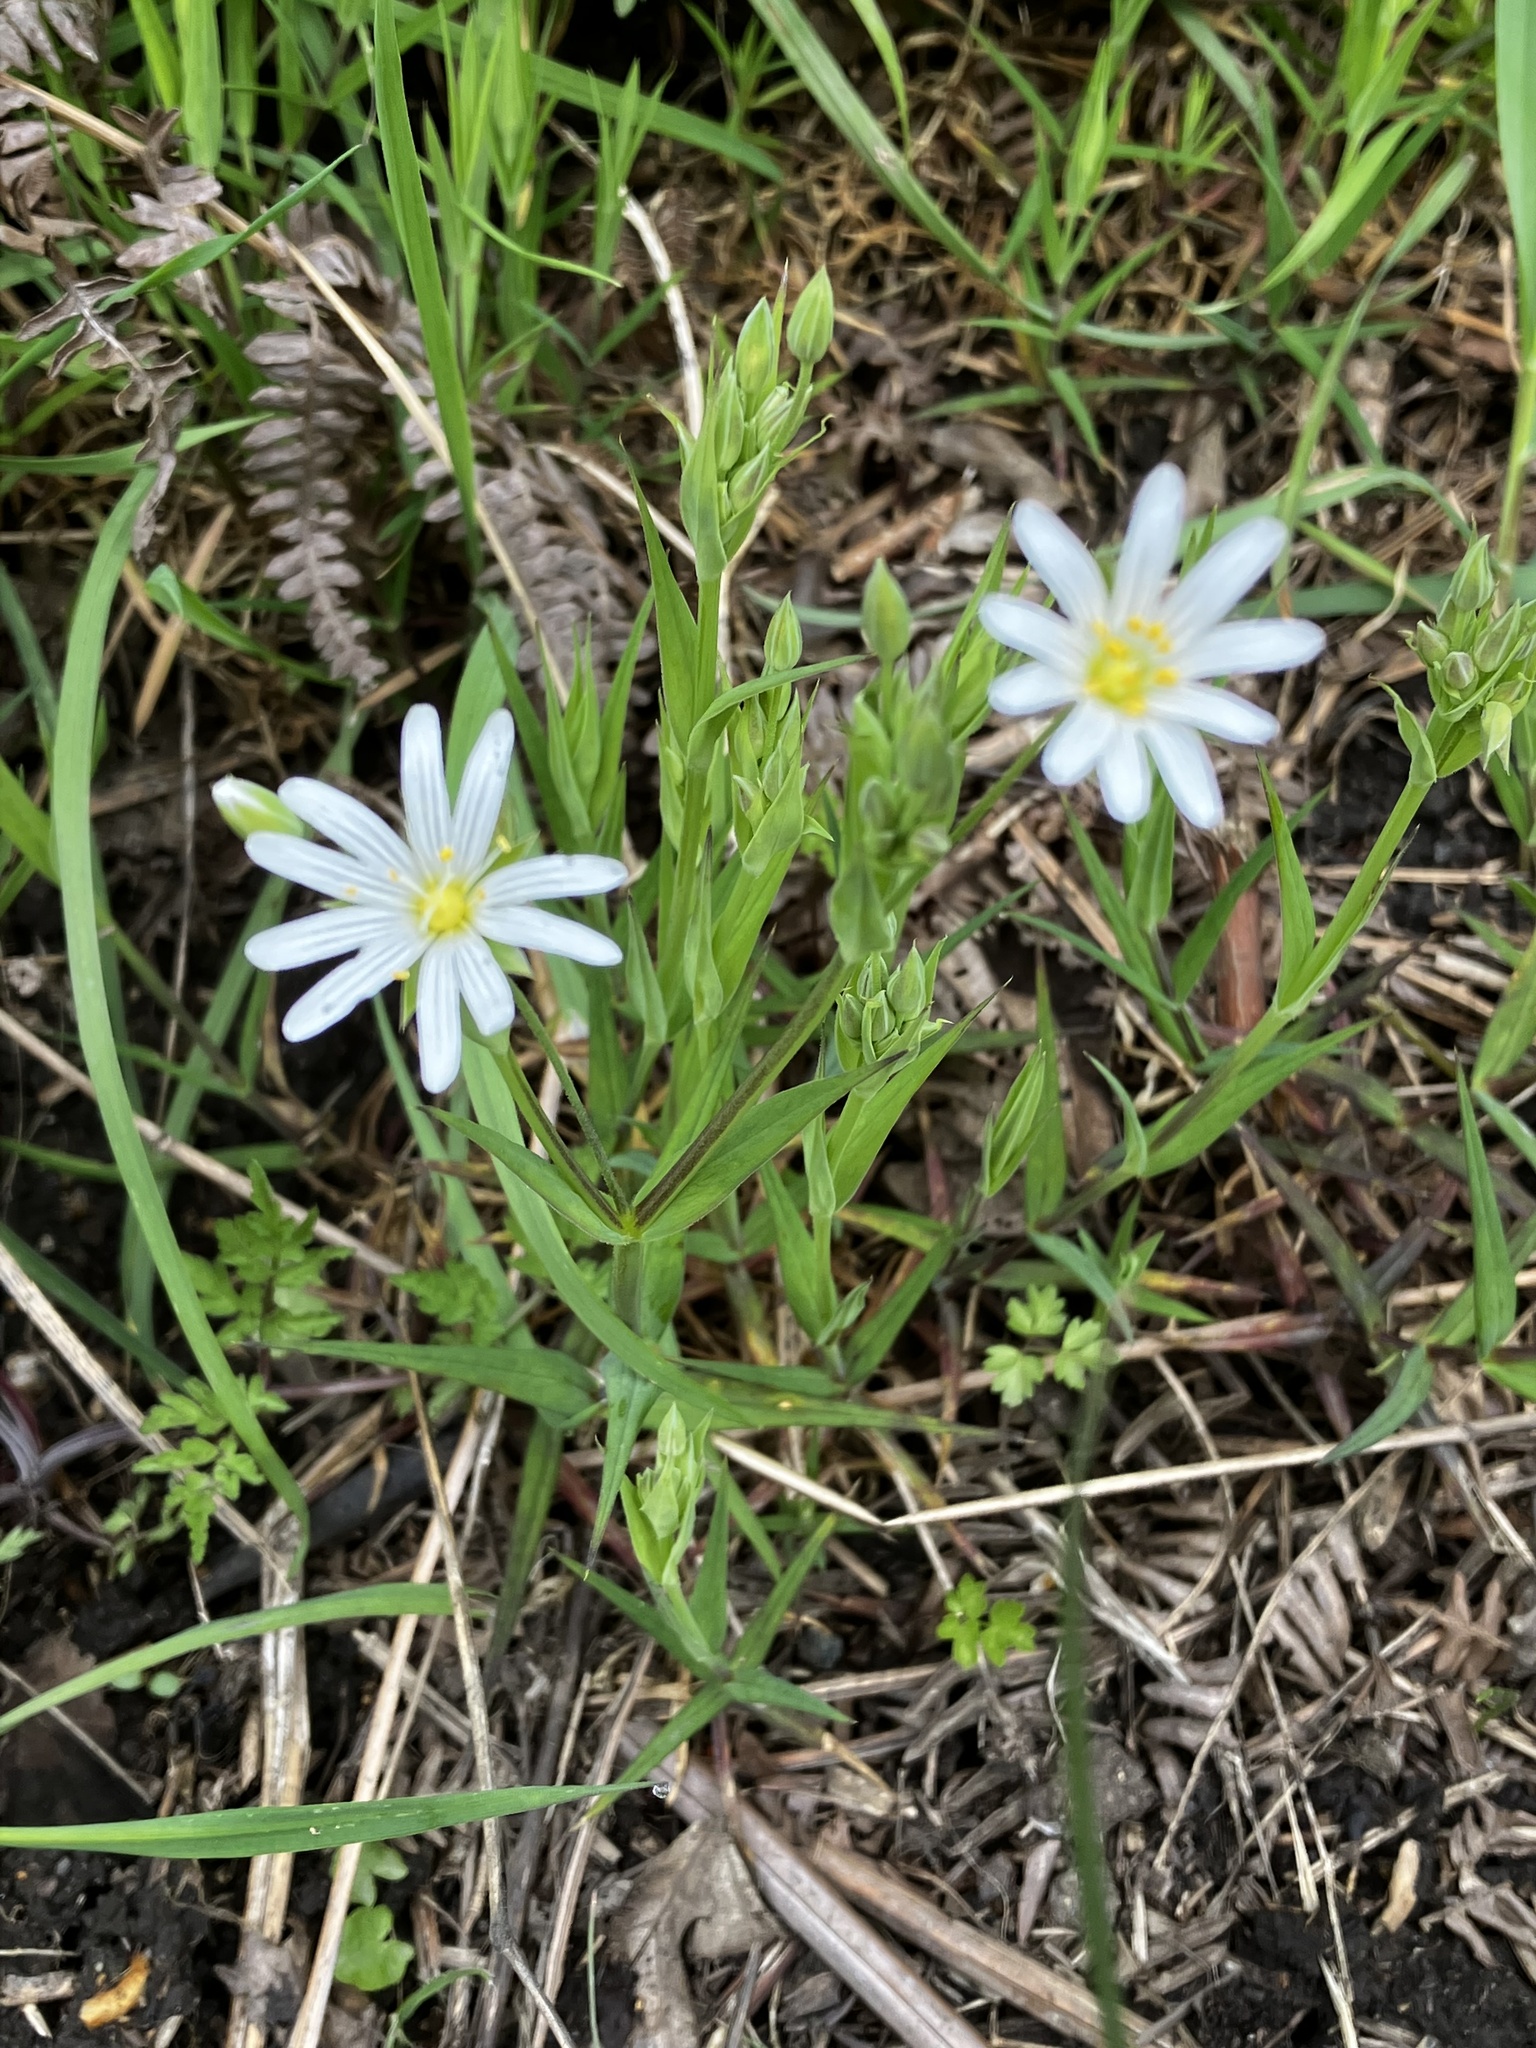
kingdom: Plantae
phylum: Tracheophyta
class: Magnoliopsida
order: Caryophyllales
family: Caryophyllaceae
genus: Rabelera
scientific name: Rabelera holostea
